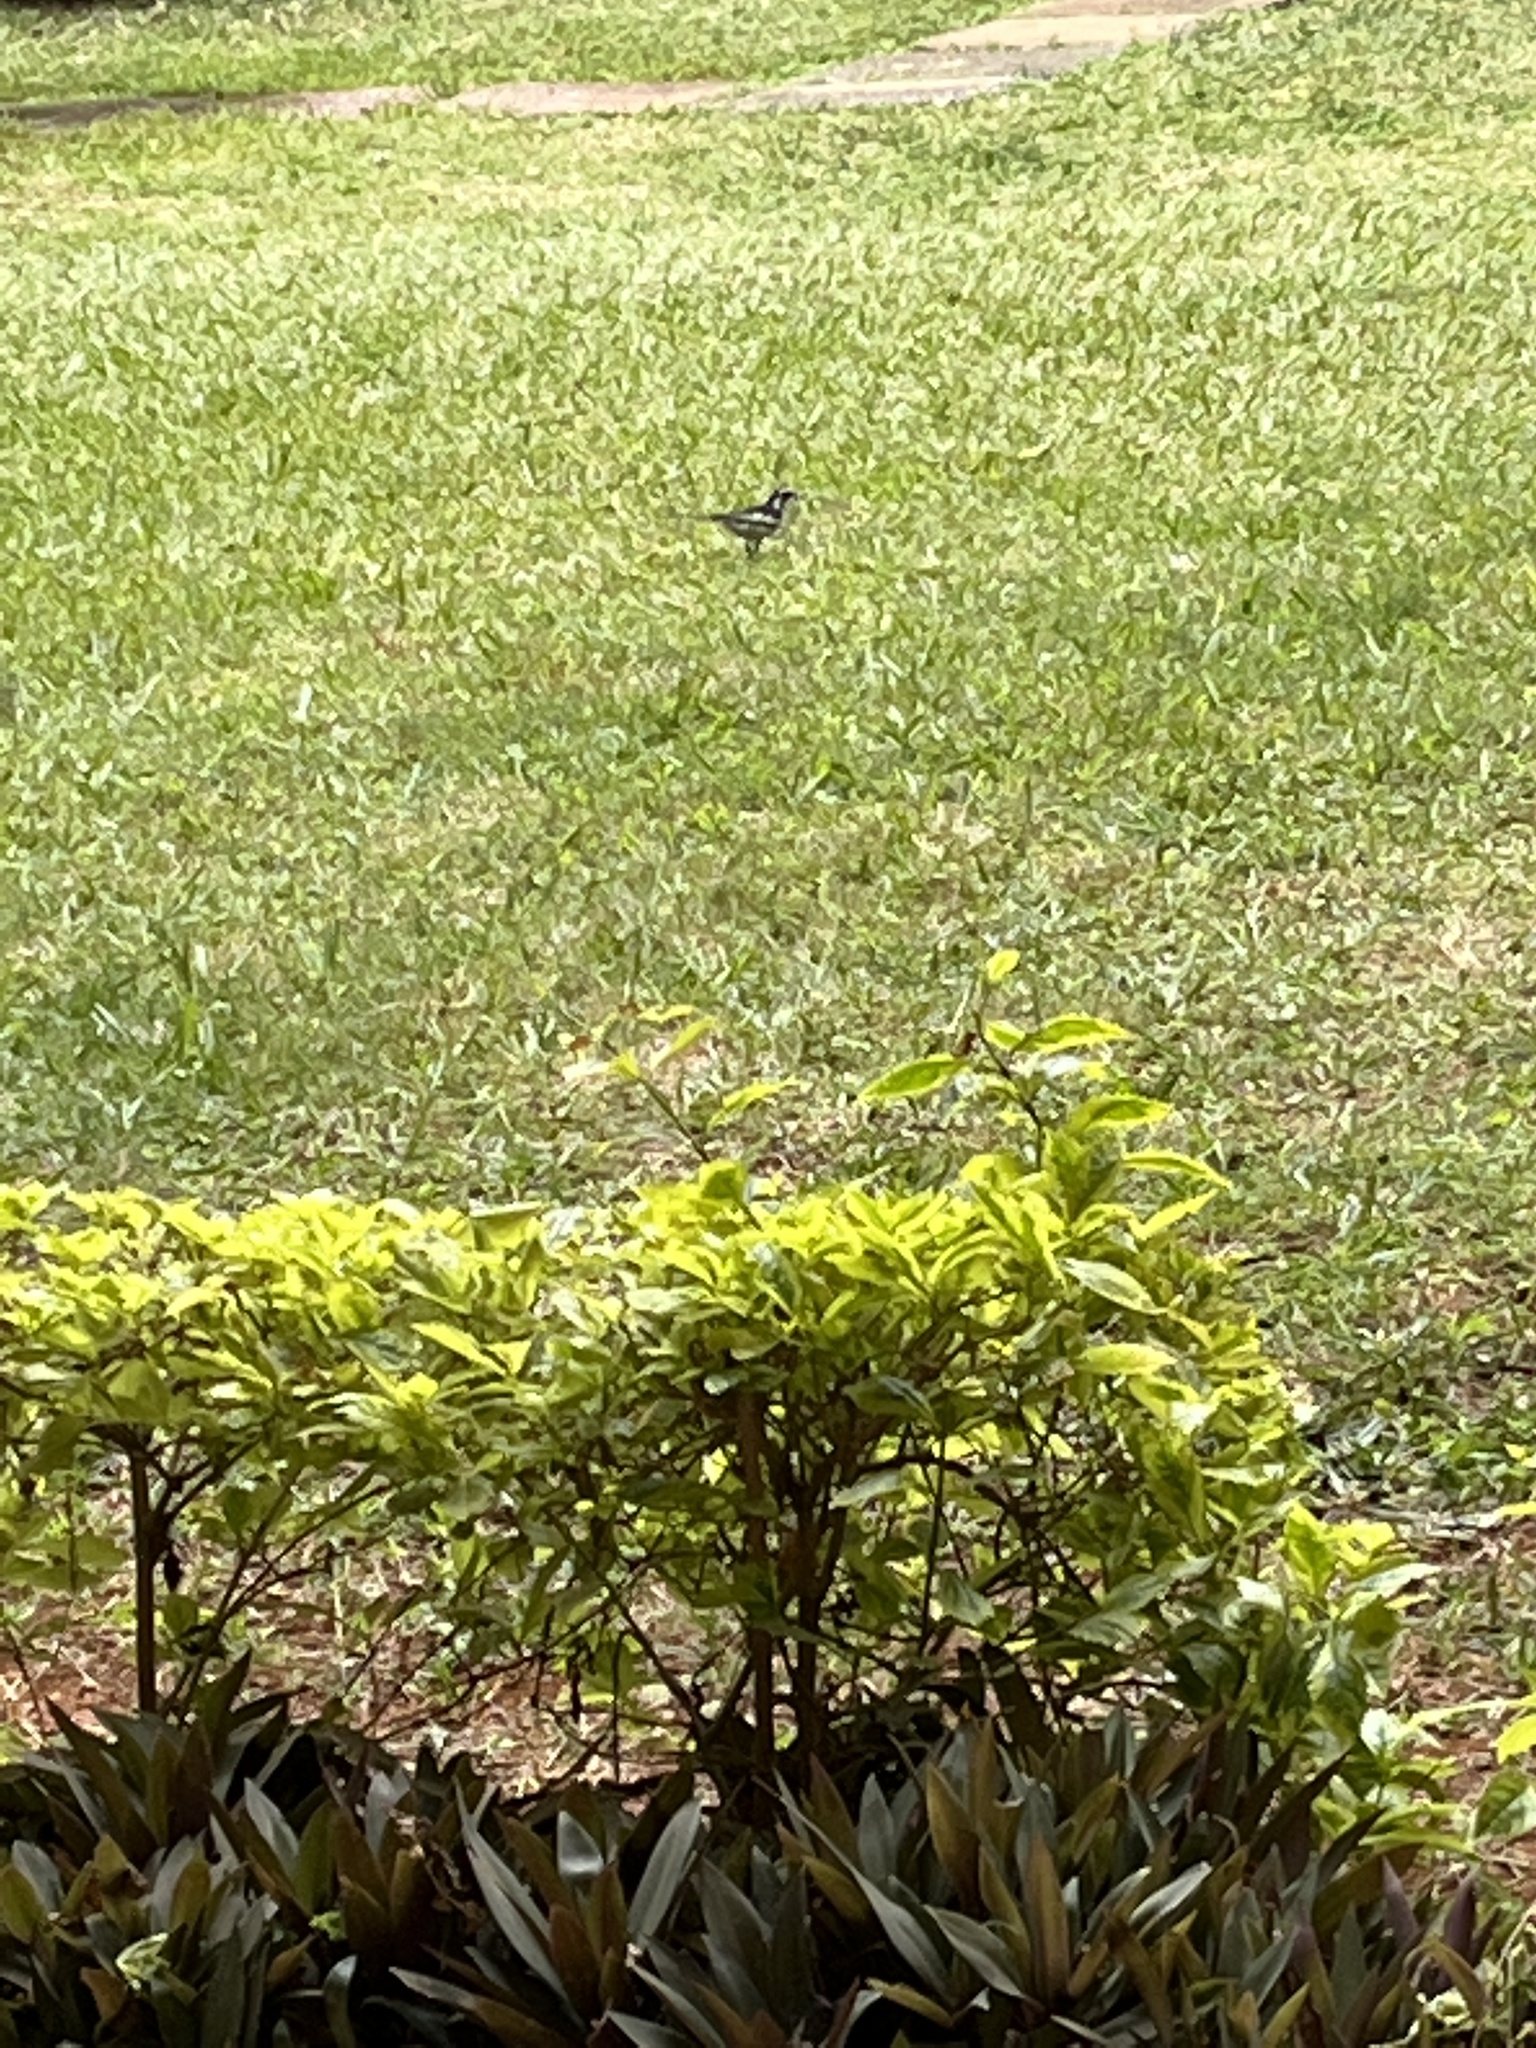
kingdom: Animalia
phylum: Chordata
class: Aves
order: Passeriformes
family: Motacillidae
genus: Motacilla
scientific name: Motacilla aguimp
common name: African pied wagtail
